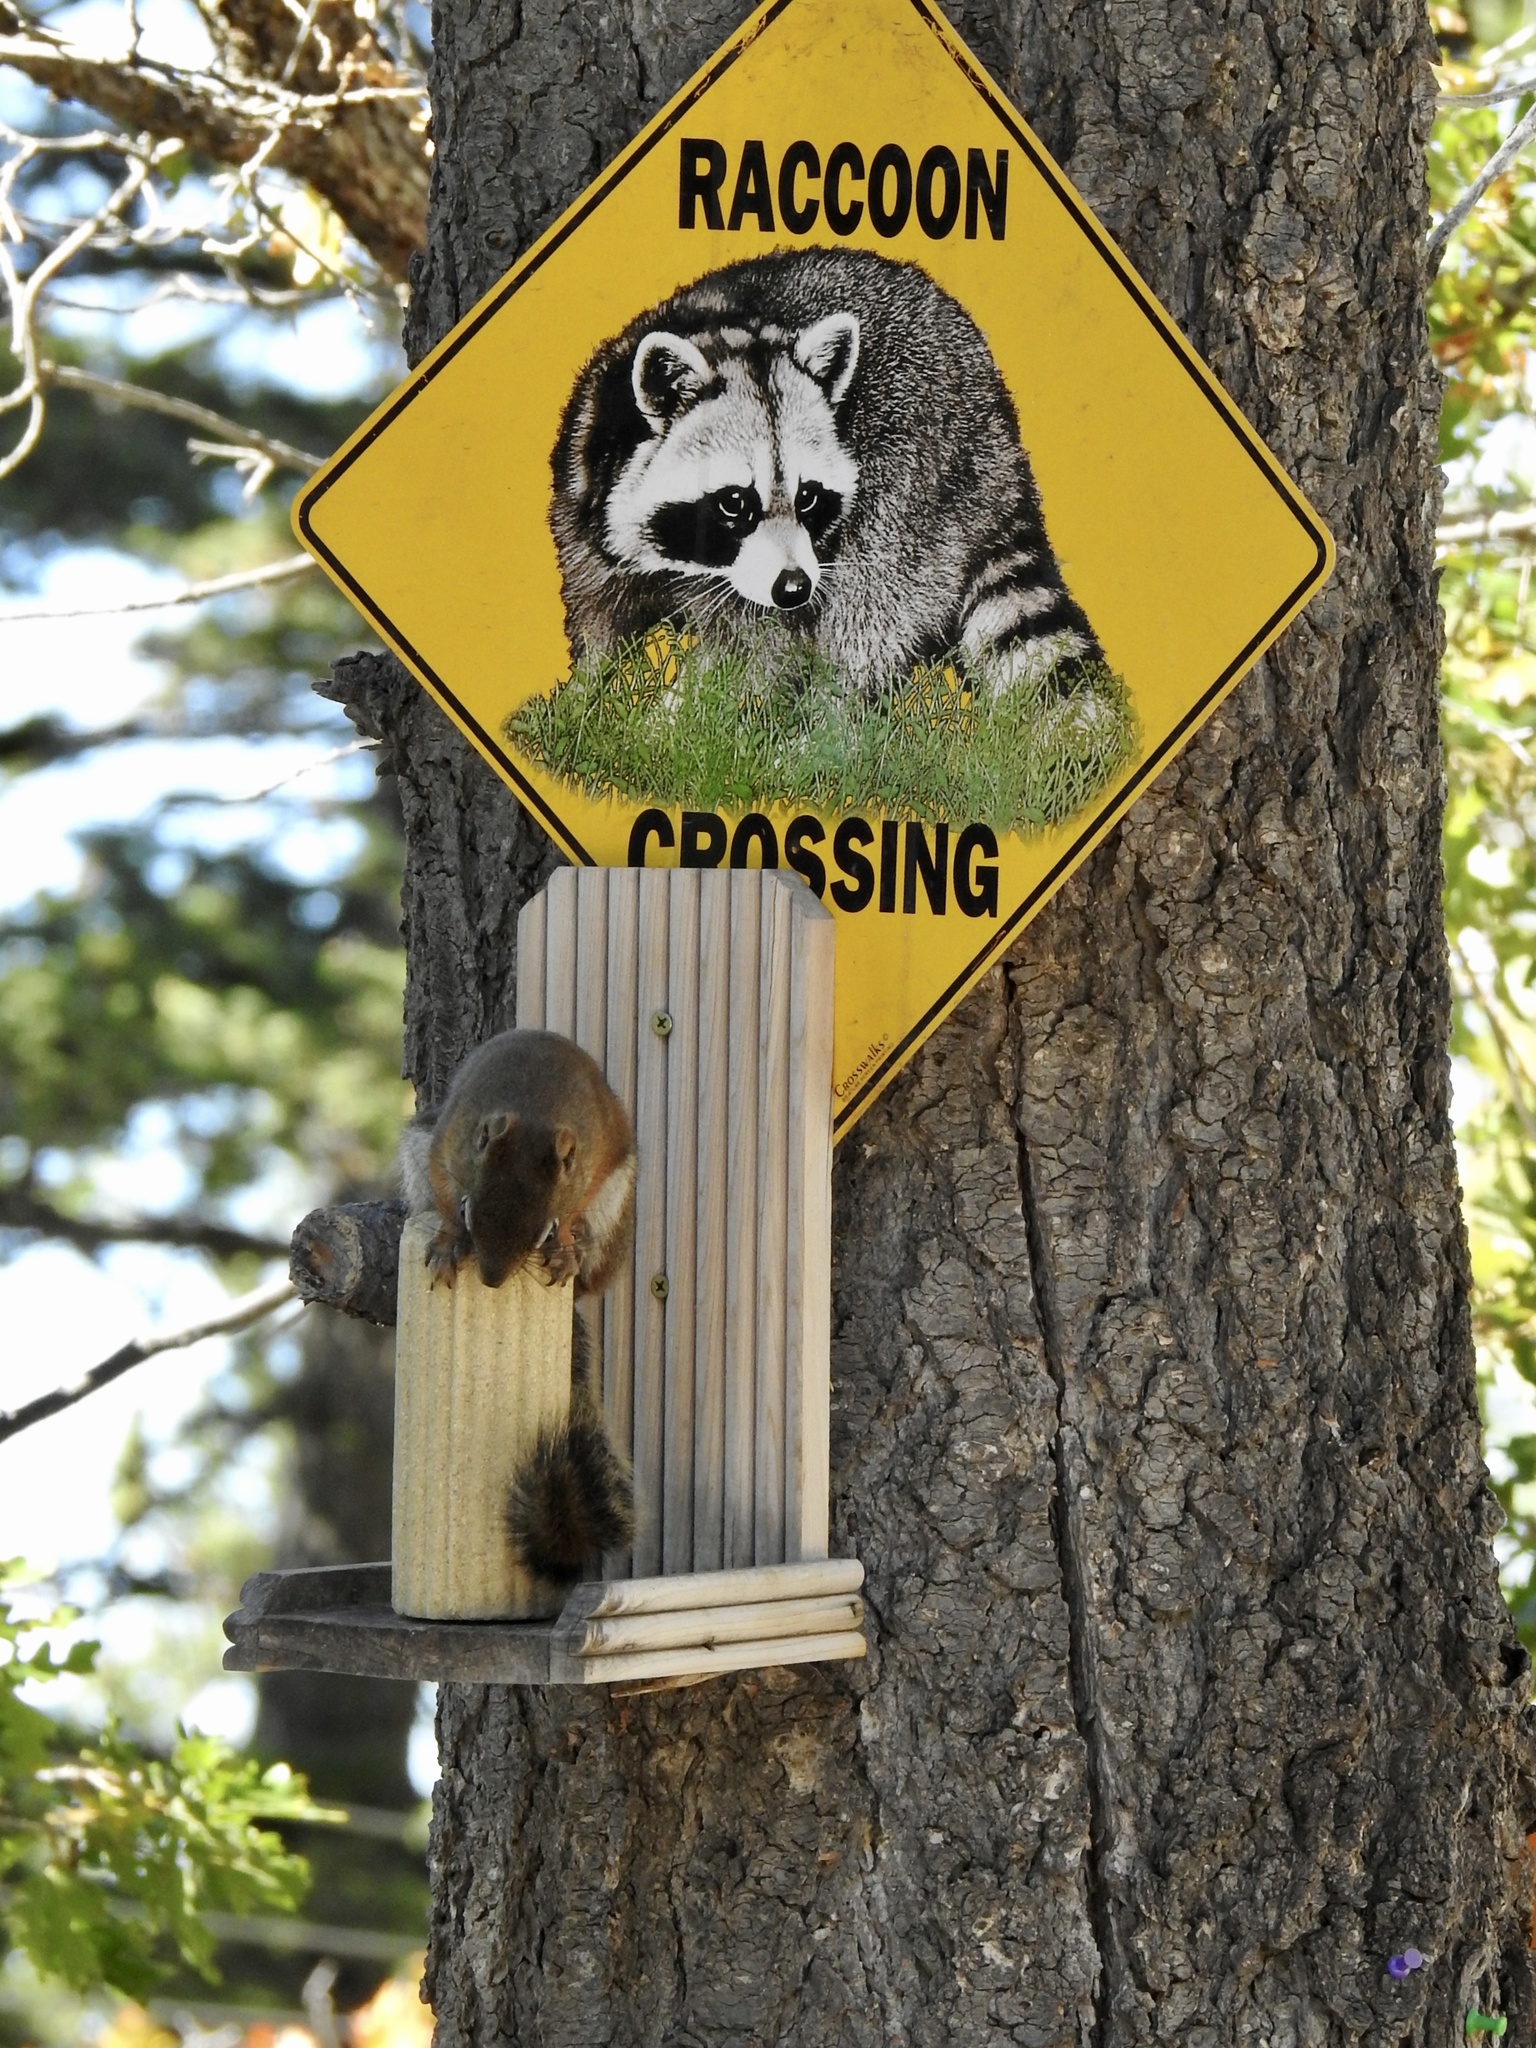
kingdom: Animalia
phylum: Chordata
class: Mammalia
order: Rodentia
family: Sciuridae
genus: Tamiasciurus
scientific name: Tamiasciurus hudsonicus
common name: Red squirrel
